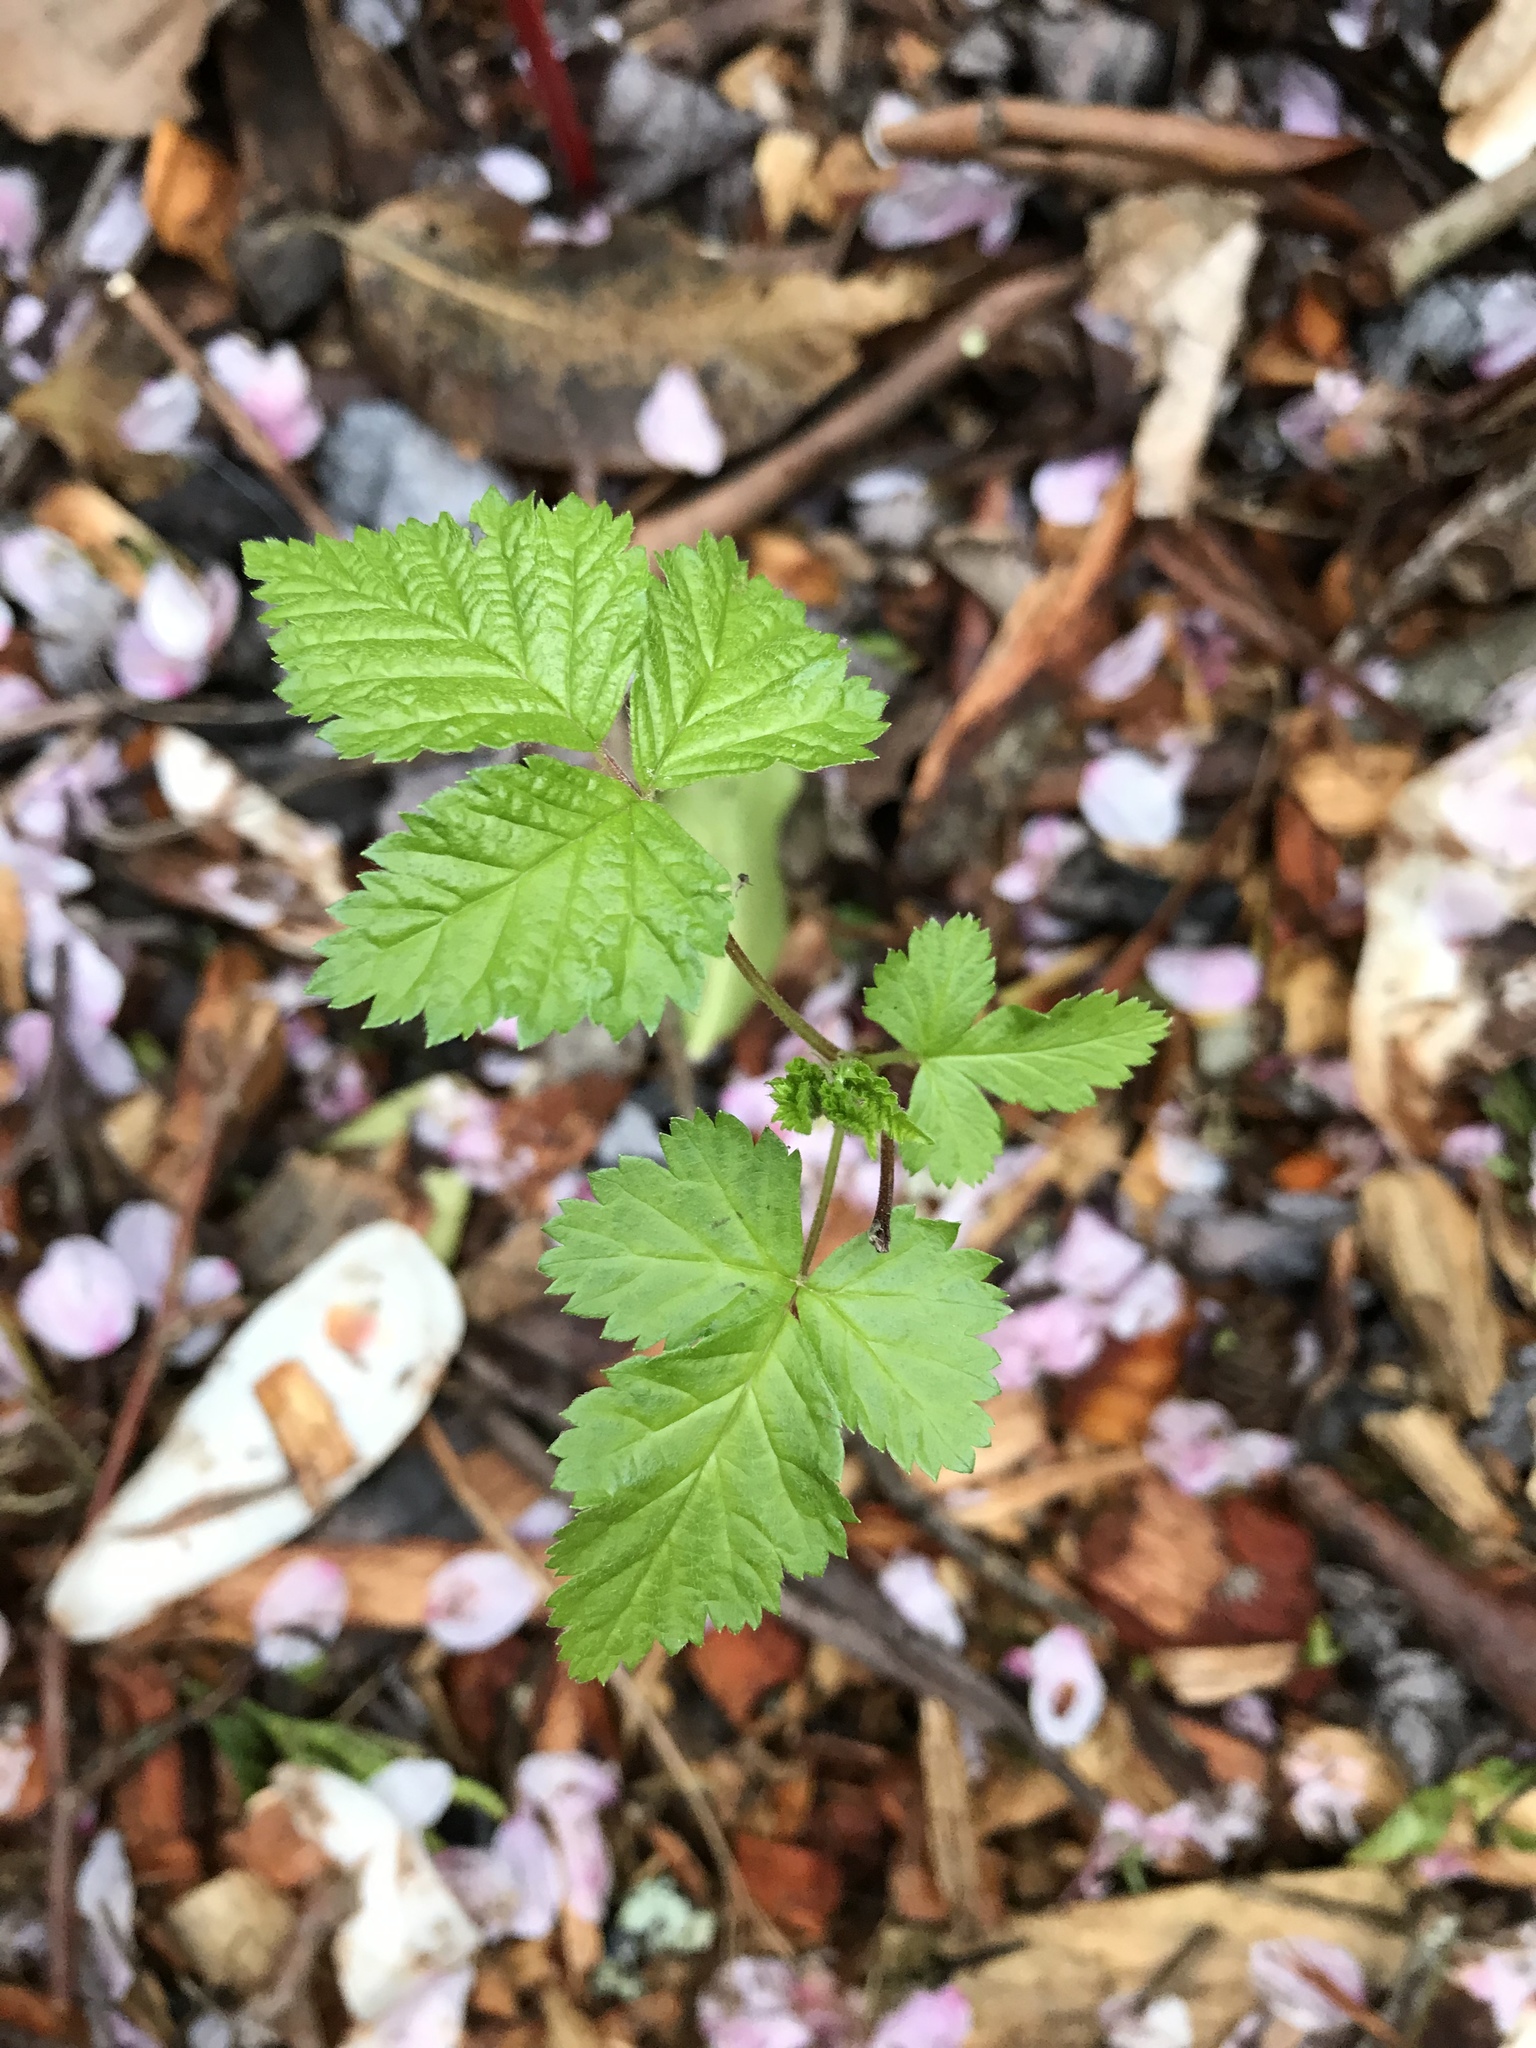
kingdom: Plantae
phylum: Tracheophyta
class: Magnoliopsida
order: Rosales
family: Rosaceae
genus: Rubus
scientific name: Rubus spectabilis
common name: Salmonberry
